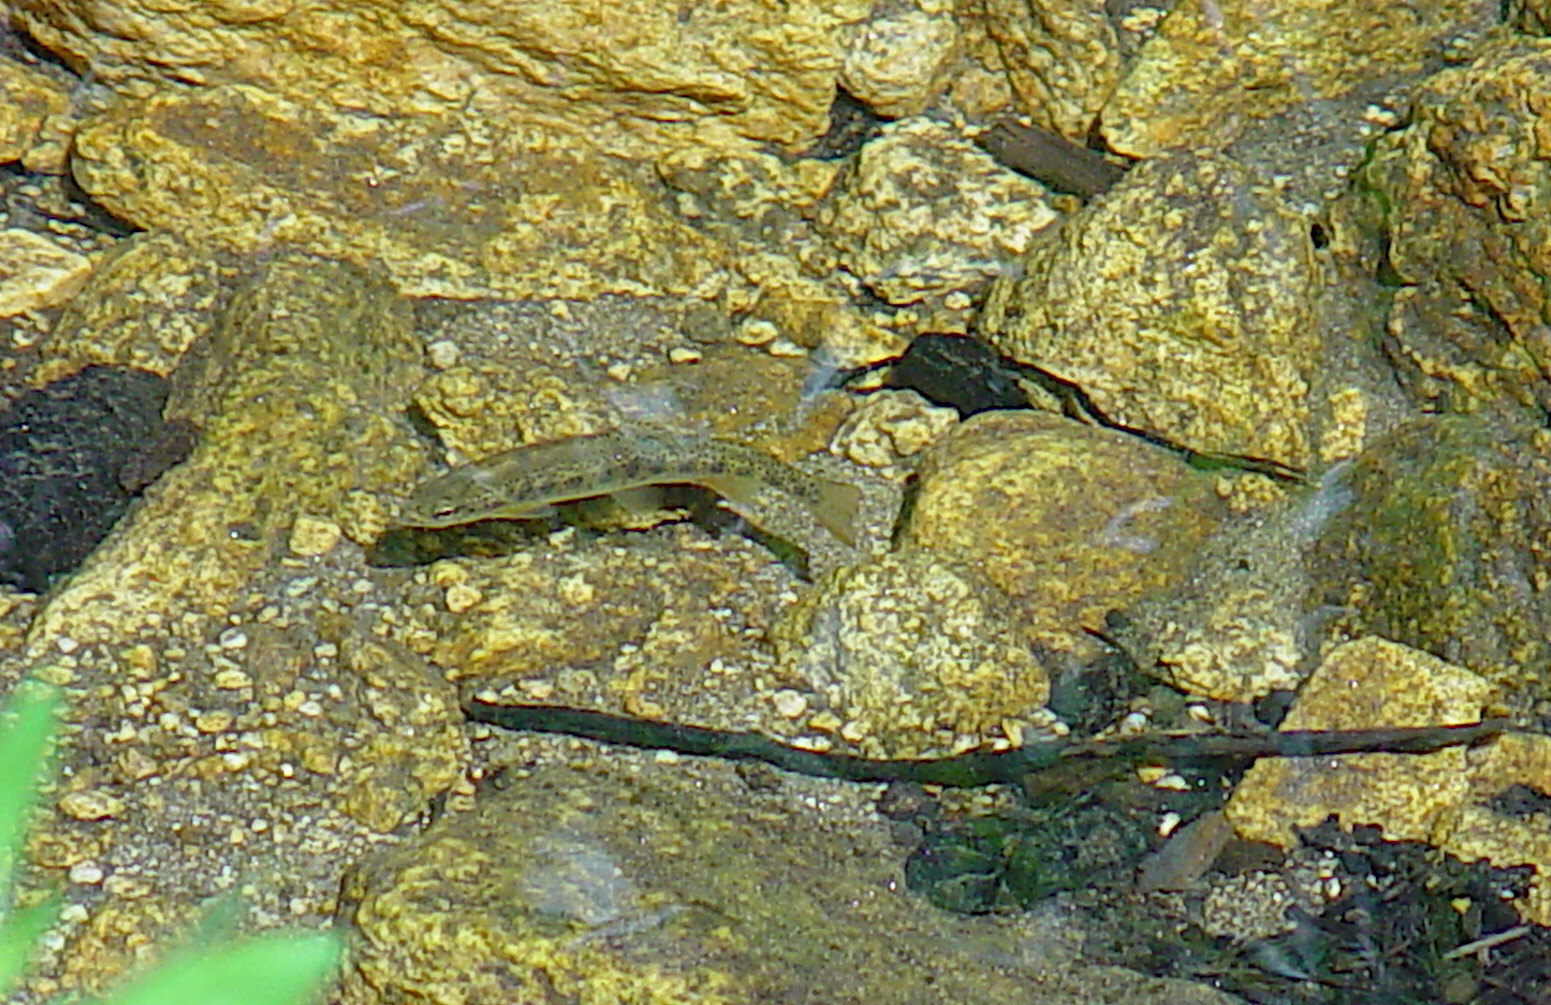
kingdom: Animalia
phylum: Chordata
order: Salmoniformes
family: Salmonidae
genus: Oncorhynchus
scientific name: Oncorhynchus mykiss
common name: Rainbow trout
